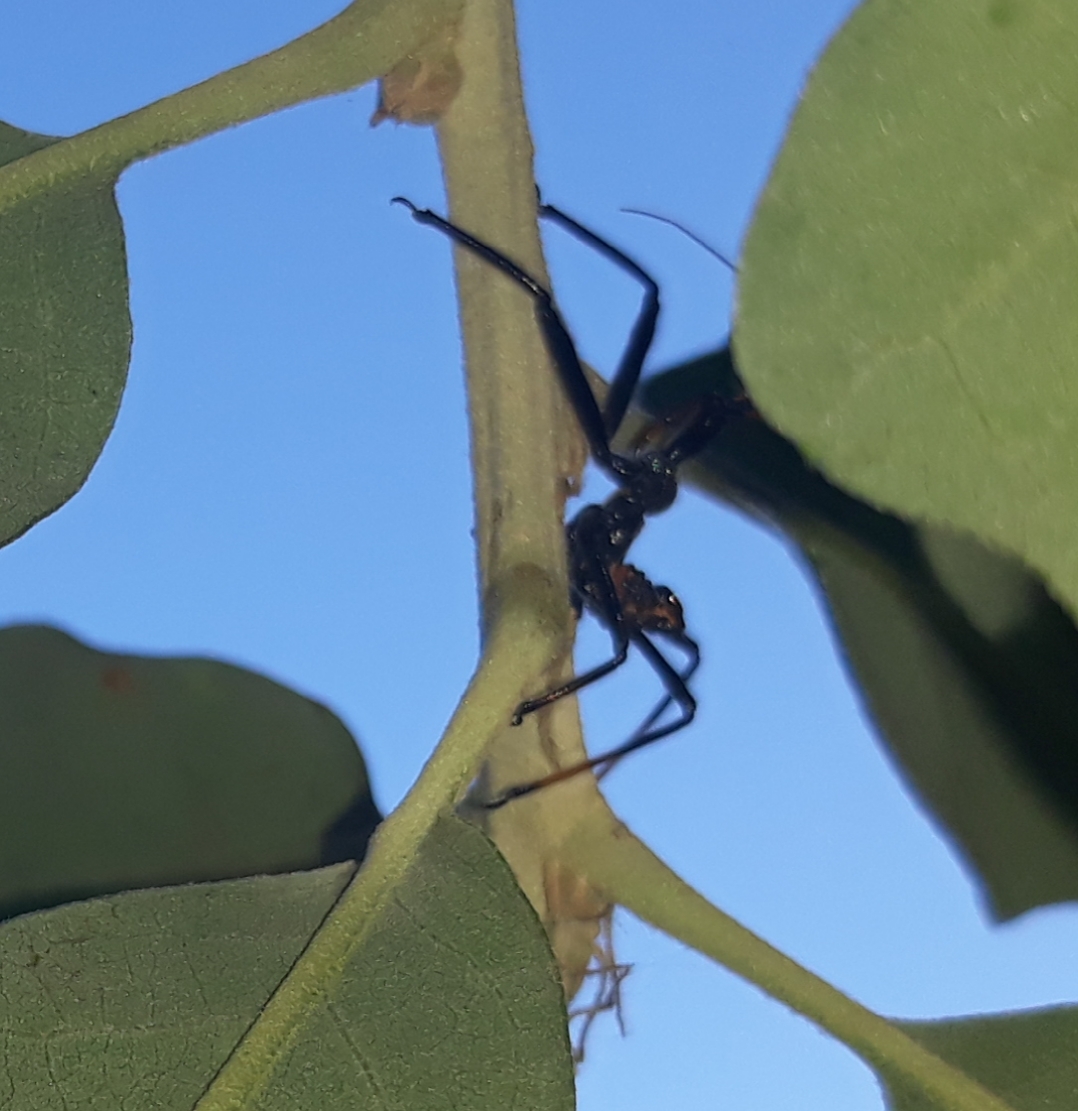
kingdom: Animalia
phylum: Arthropoda
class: Insecta
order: Hemiptera
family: Reduviidae
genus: Arilus
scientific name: Arilus cristatus
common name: North american wheel bug
